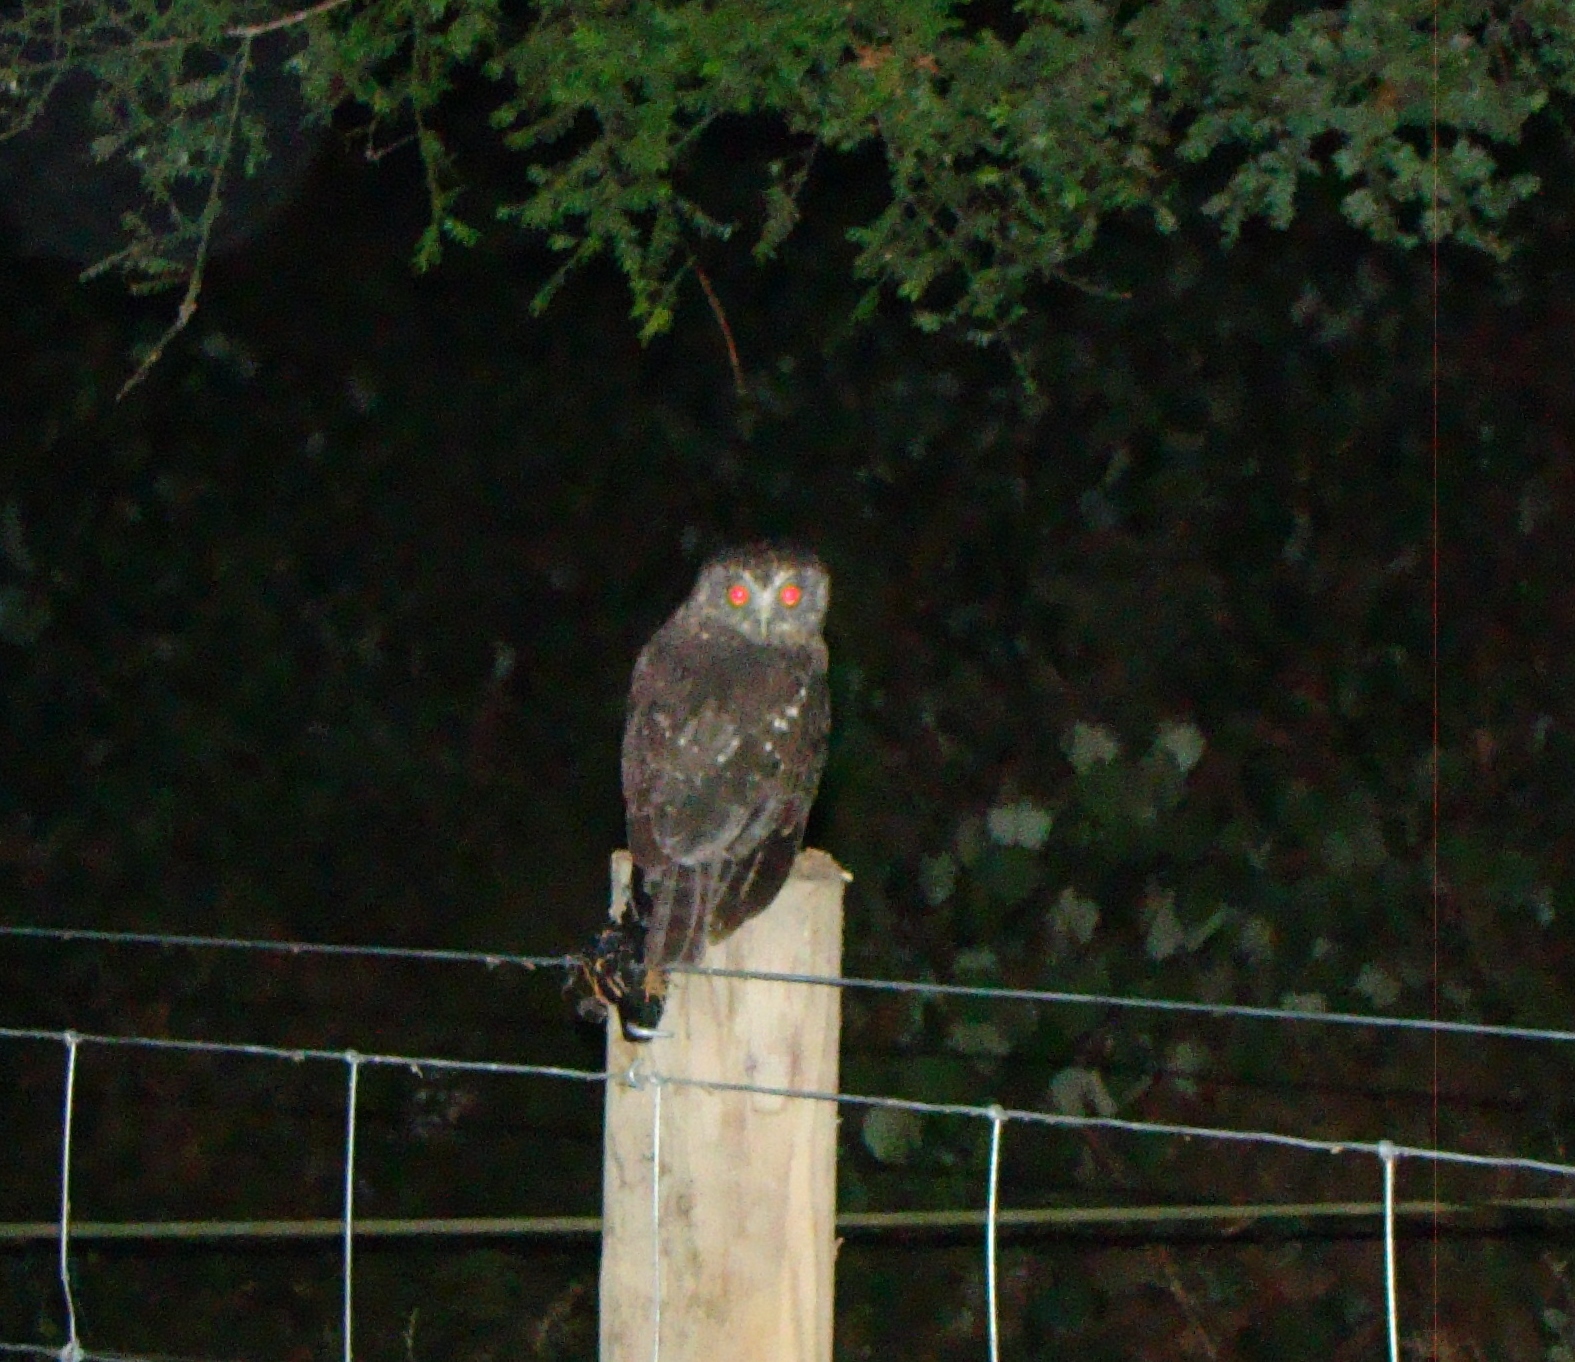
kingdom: Animalia
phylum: Chordata
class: Aves
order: Strigiformes
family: Strigidae
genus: Ninox
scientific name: Ninox novaeseelandiae
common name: Morepork
